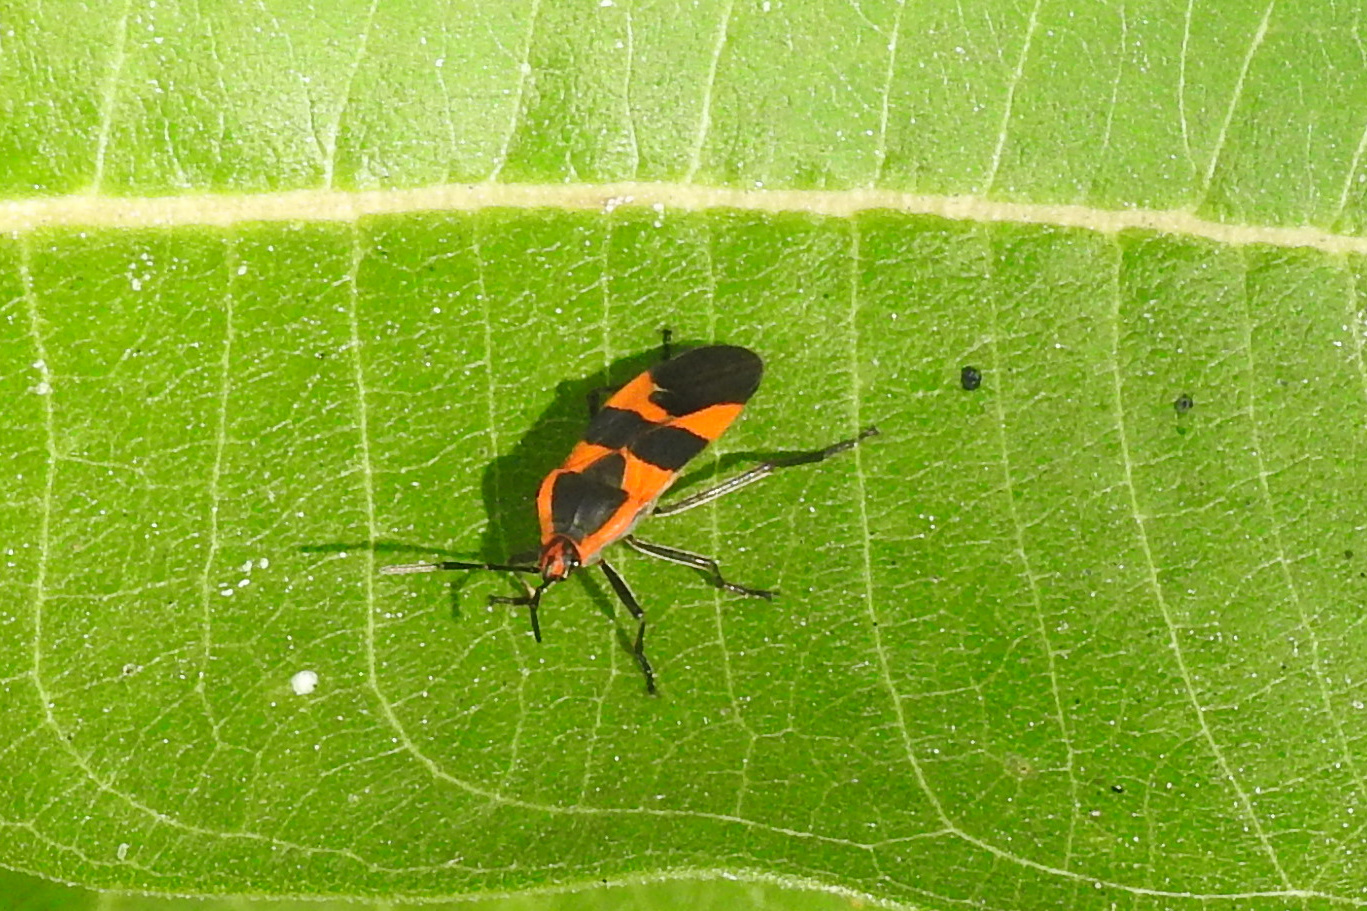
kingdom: Animalia
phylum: Arthropoda
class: Insecta
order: Hemiptera
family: Lygaeidae
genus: Oncopeltus
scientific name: Oncopeltus fasciatus
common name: Large milkweed bug
